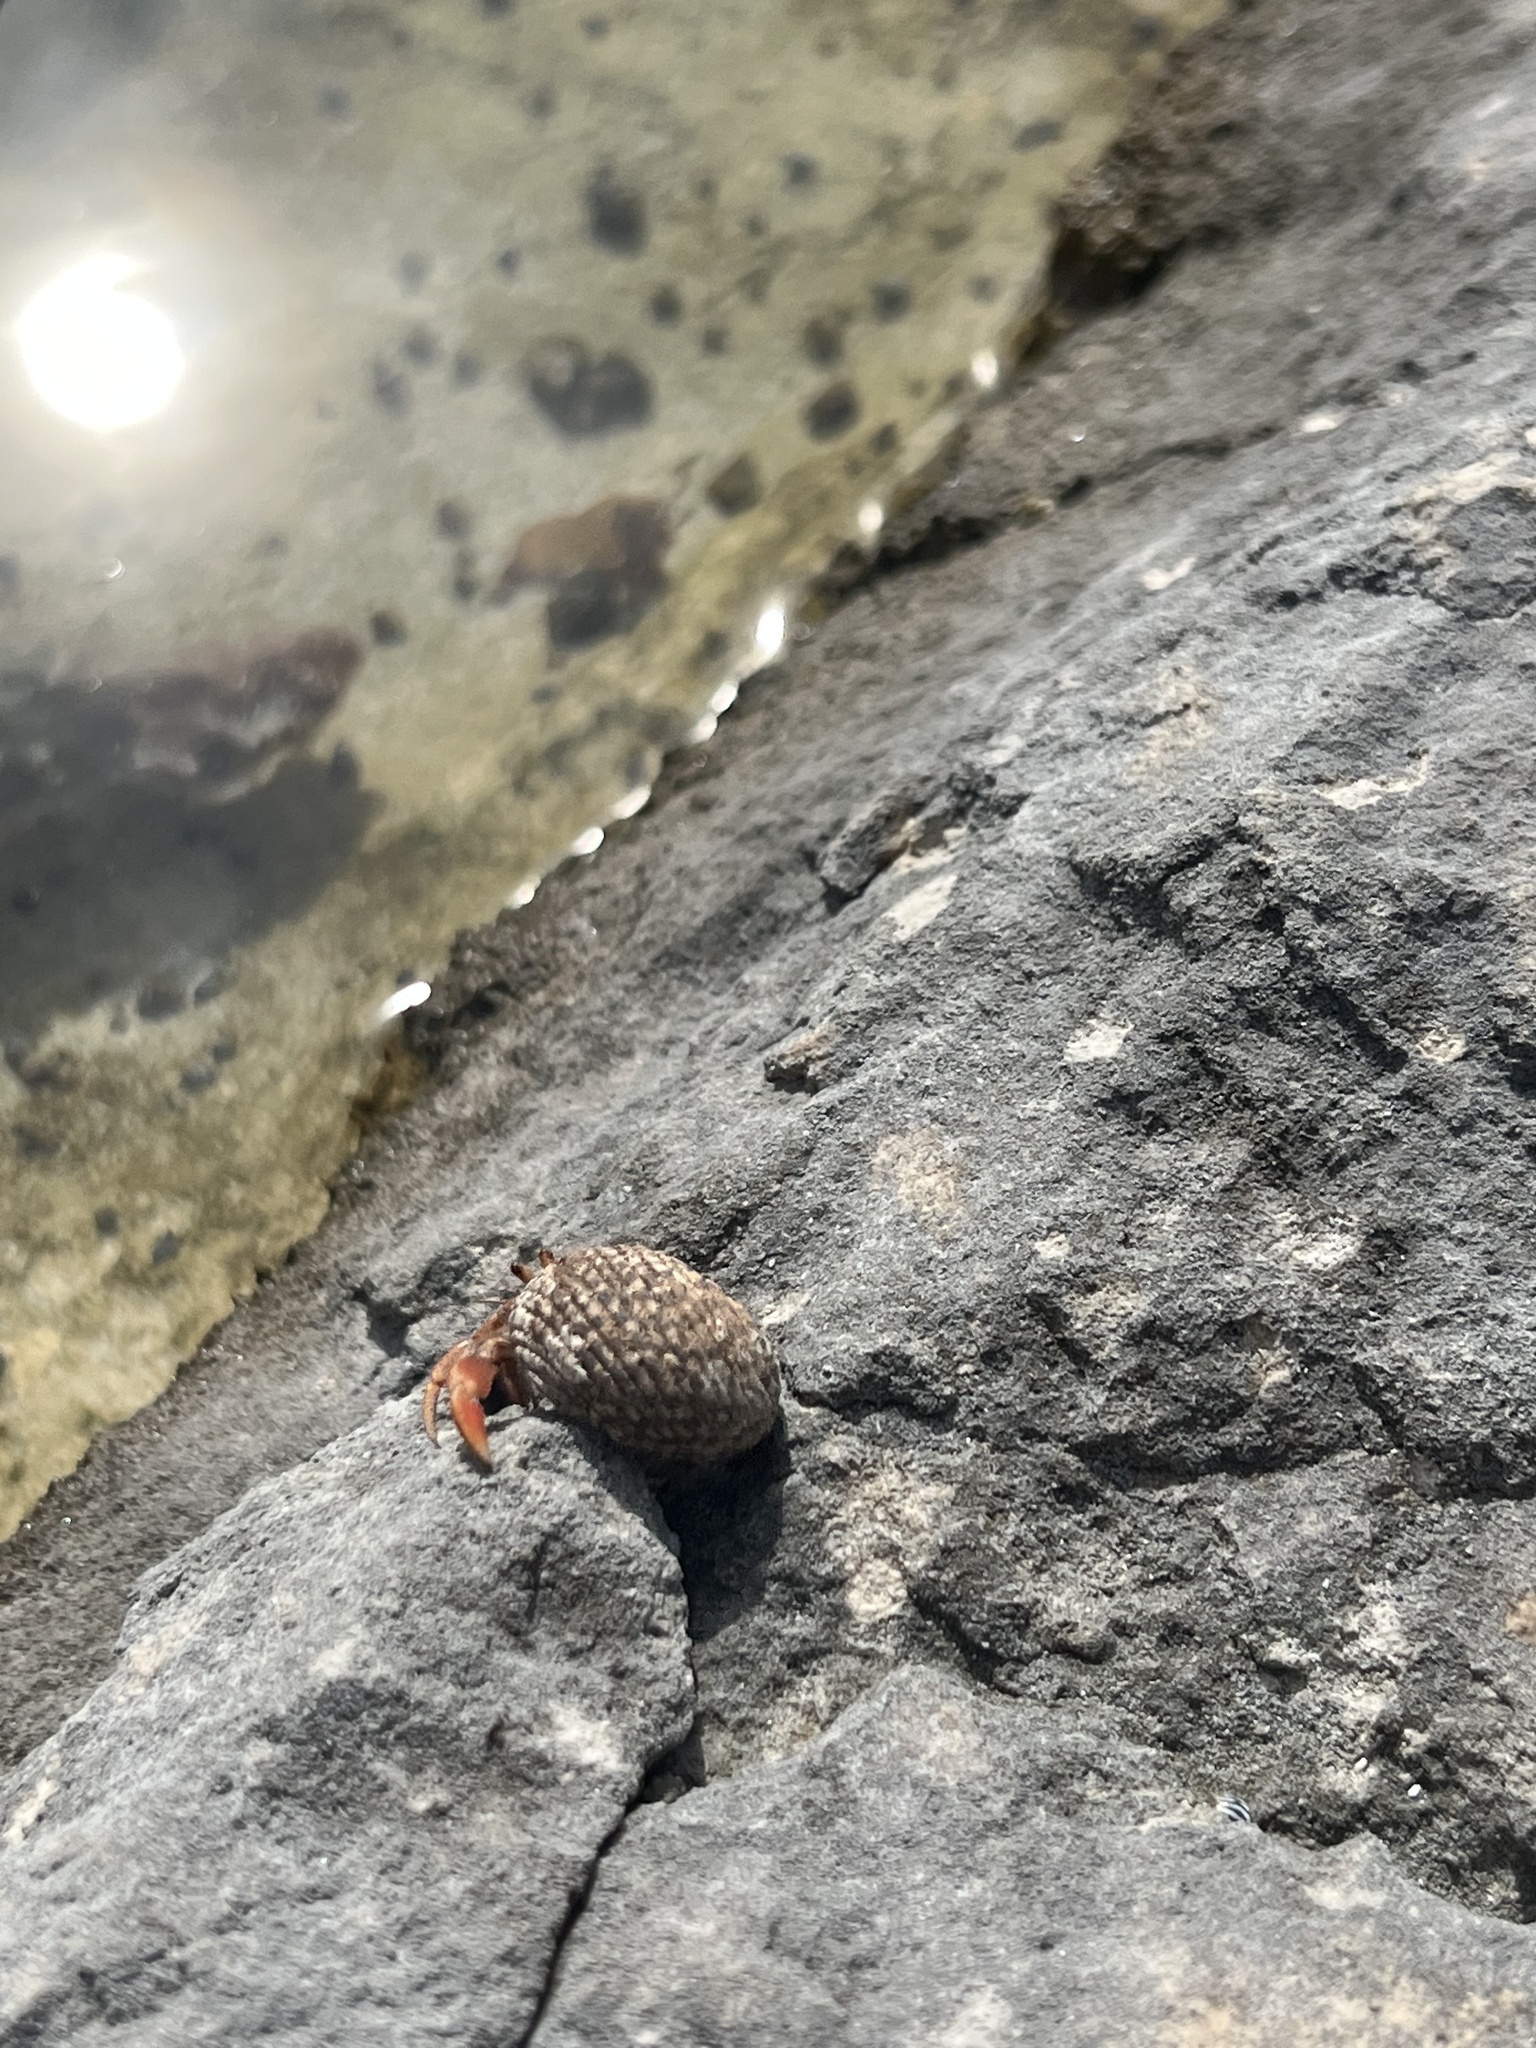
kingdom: Animalia
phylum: Arthropoda
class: Malacostraca
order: Decapoda
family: Coenobitidae
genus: Coenobita
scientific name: Coenobita clypeatus
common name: Caribbean hermit crab
